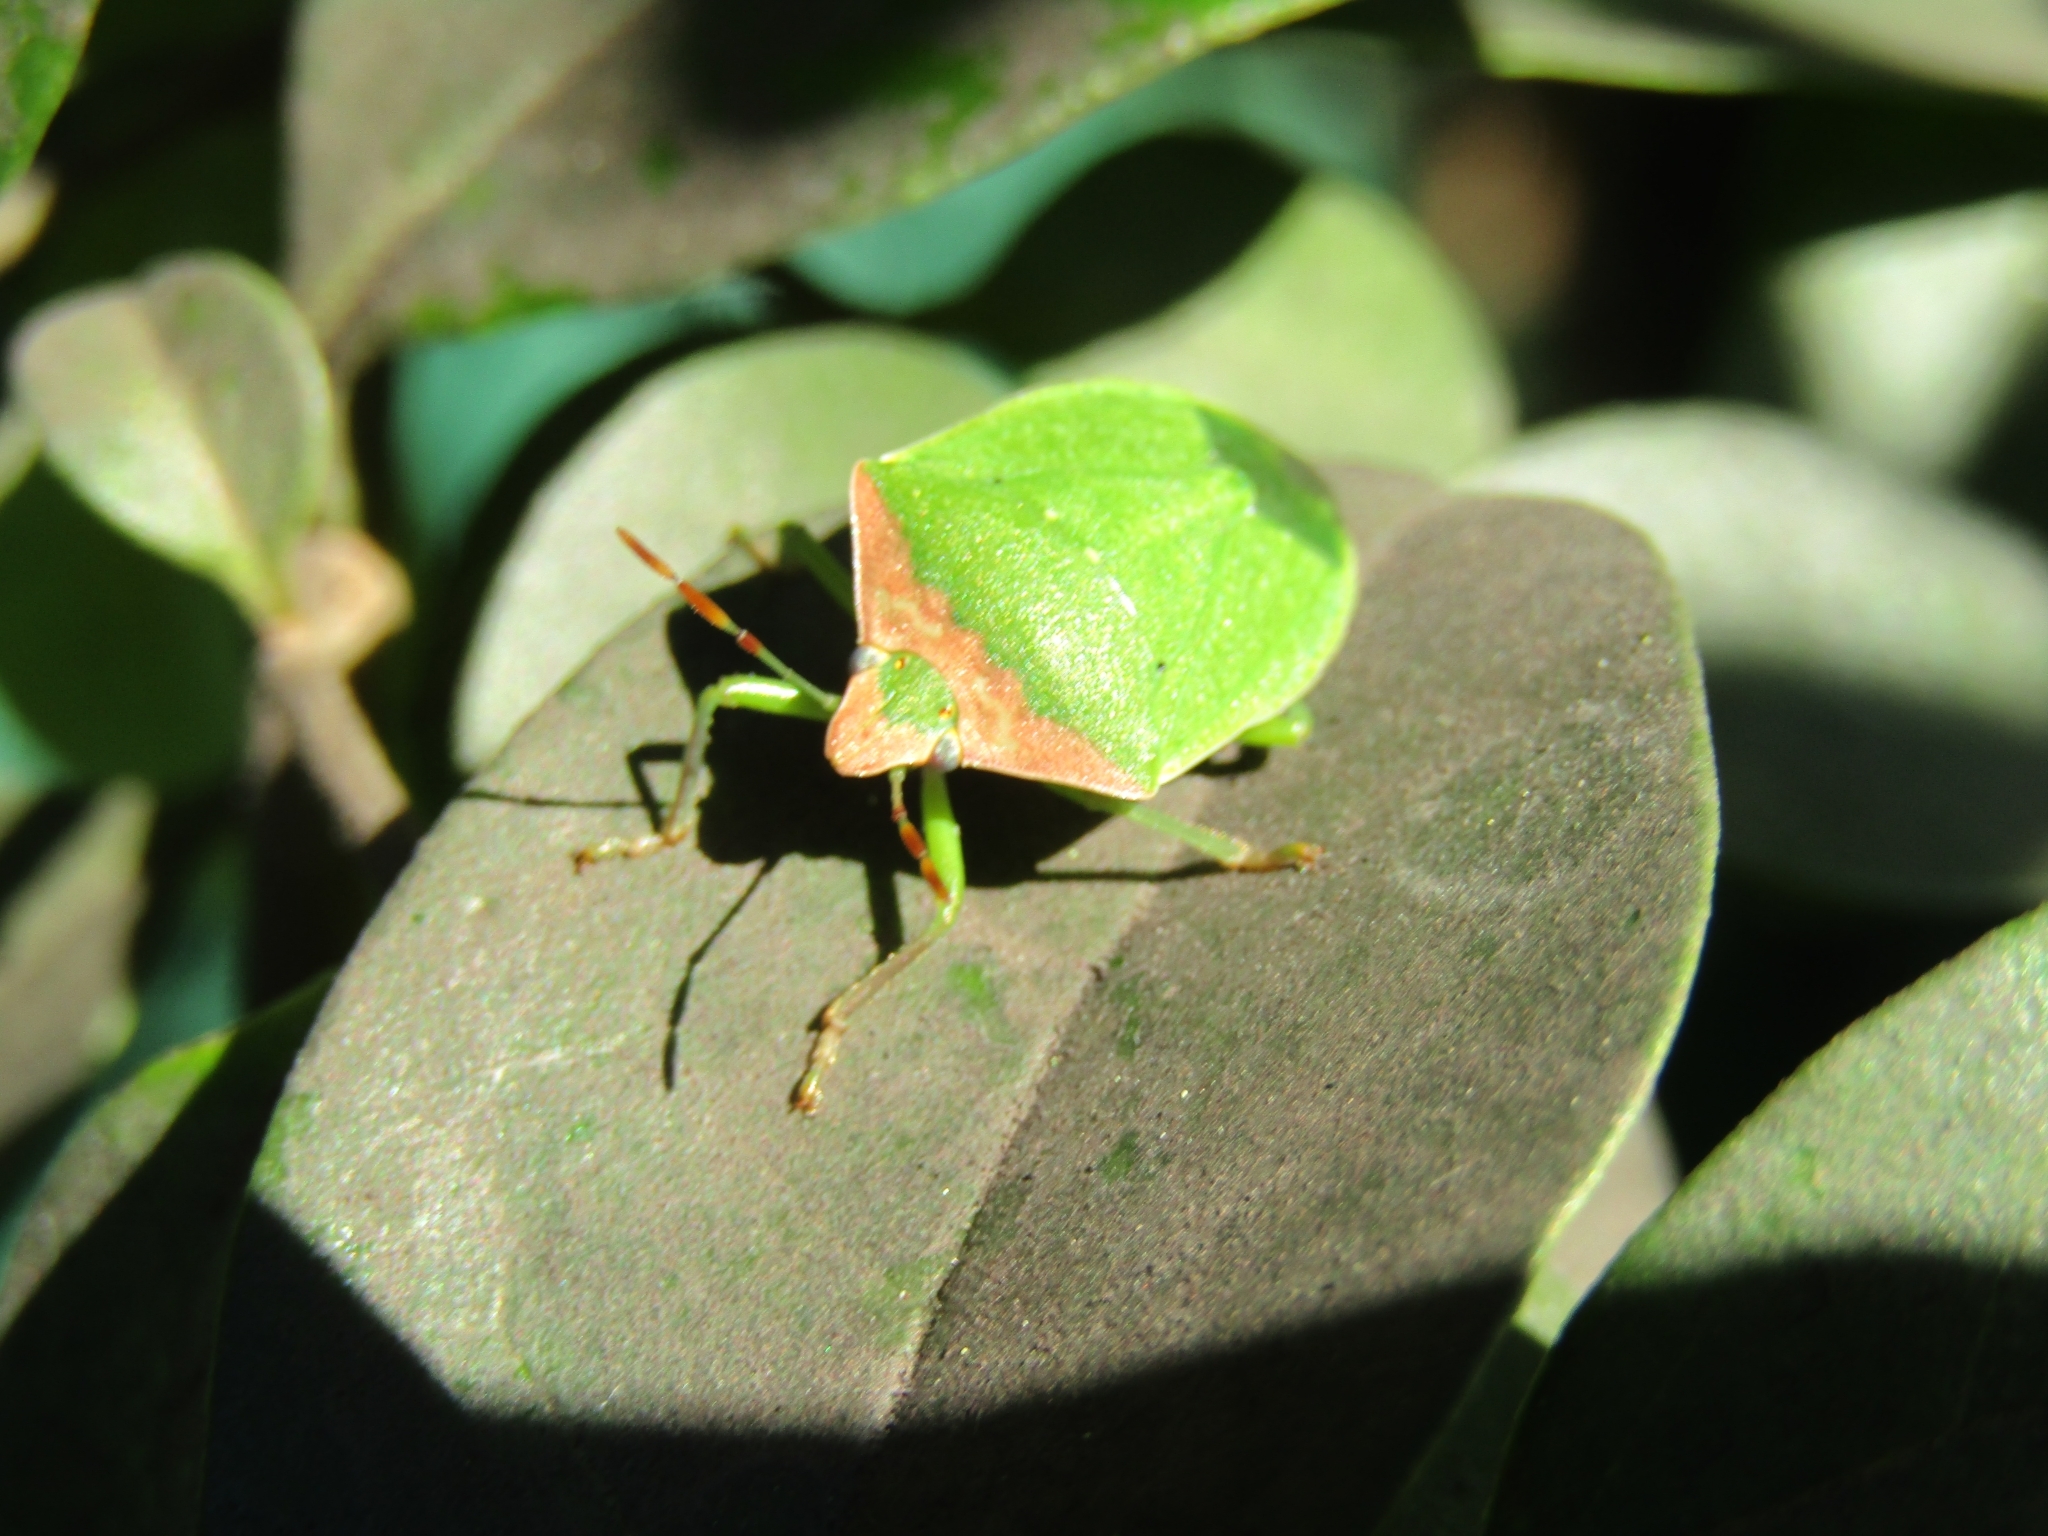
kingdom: Animalia
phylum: Arthropoda
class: Insecta
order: Hemiptera
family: Pentatomidae
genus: Nezara
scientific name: Nezara viridula
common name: Southern green stink bug
